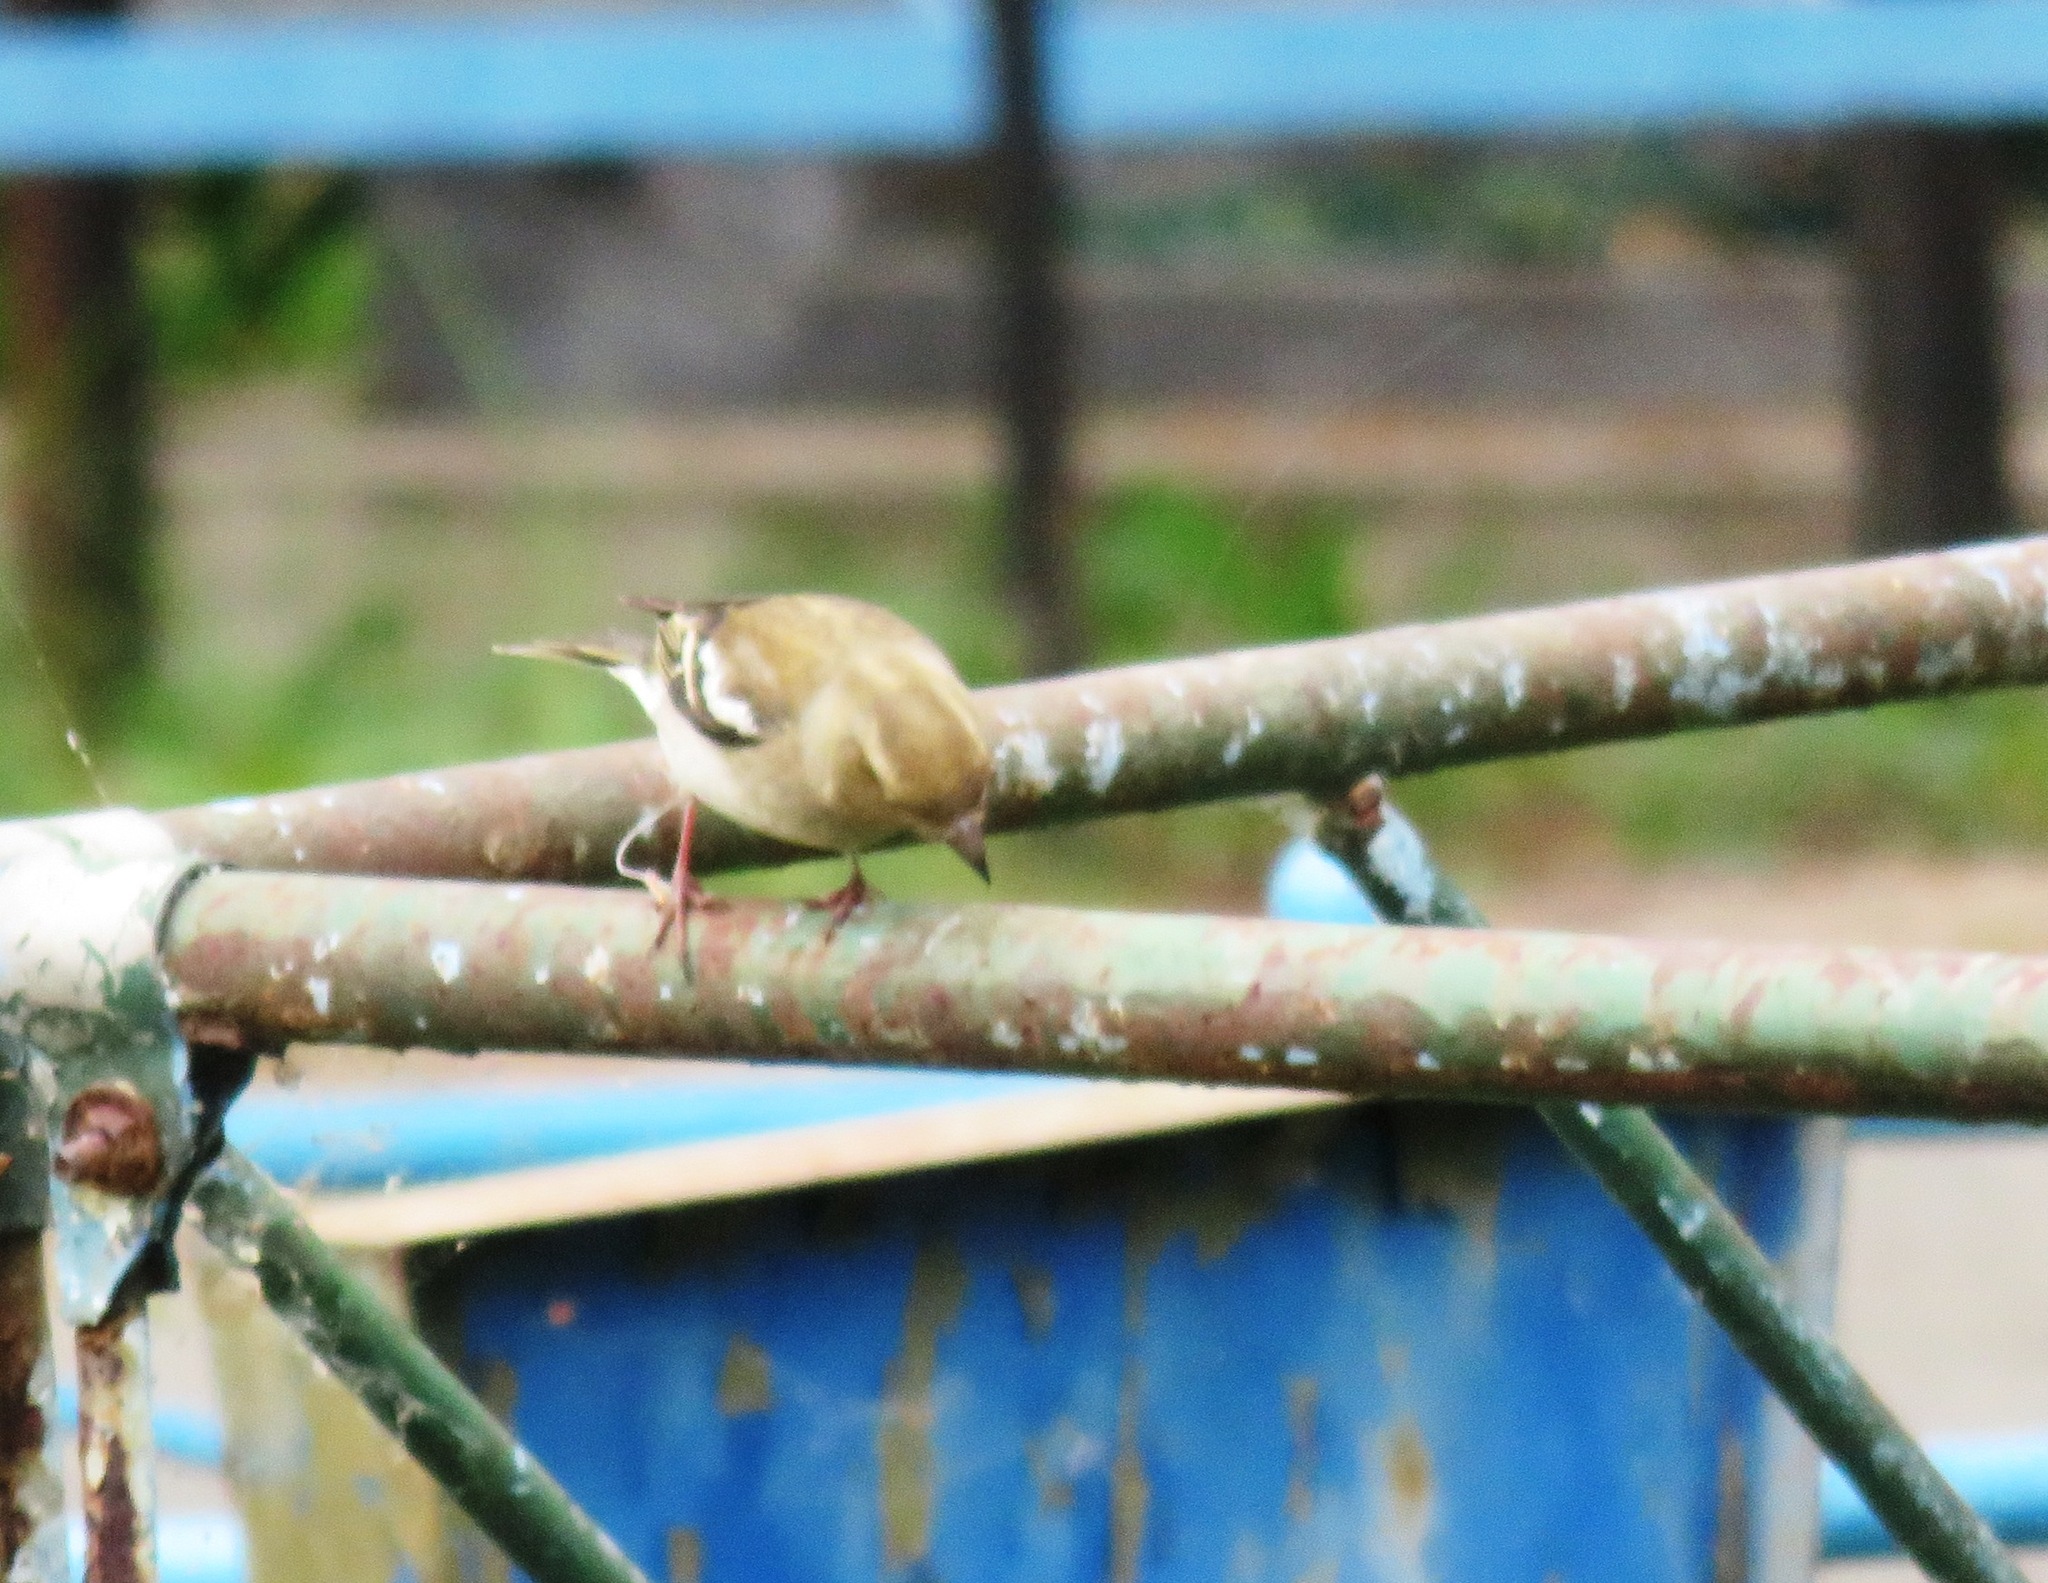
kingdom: Animalia
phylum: Chordata
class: Aves
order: Passeriformes
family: Fringillidae
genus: Fringilla
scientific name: Fringilla coelebs
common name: Common chaffinch
